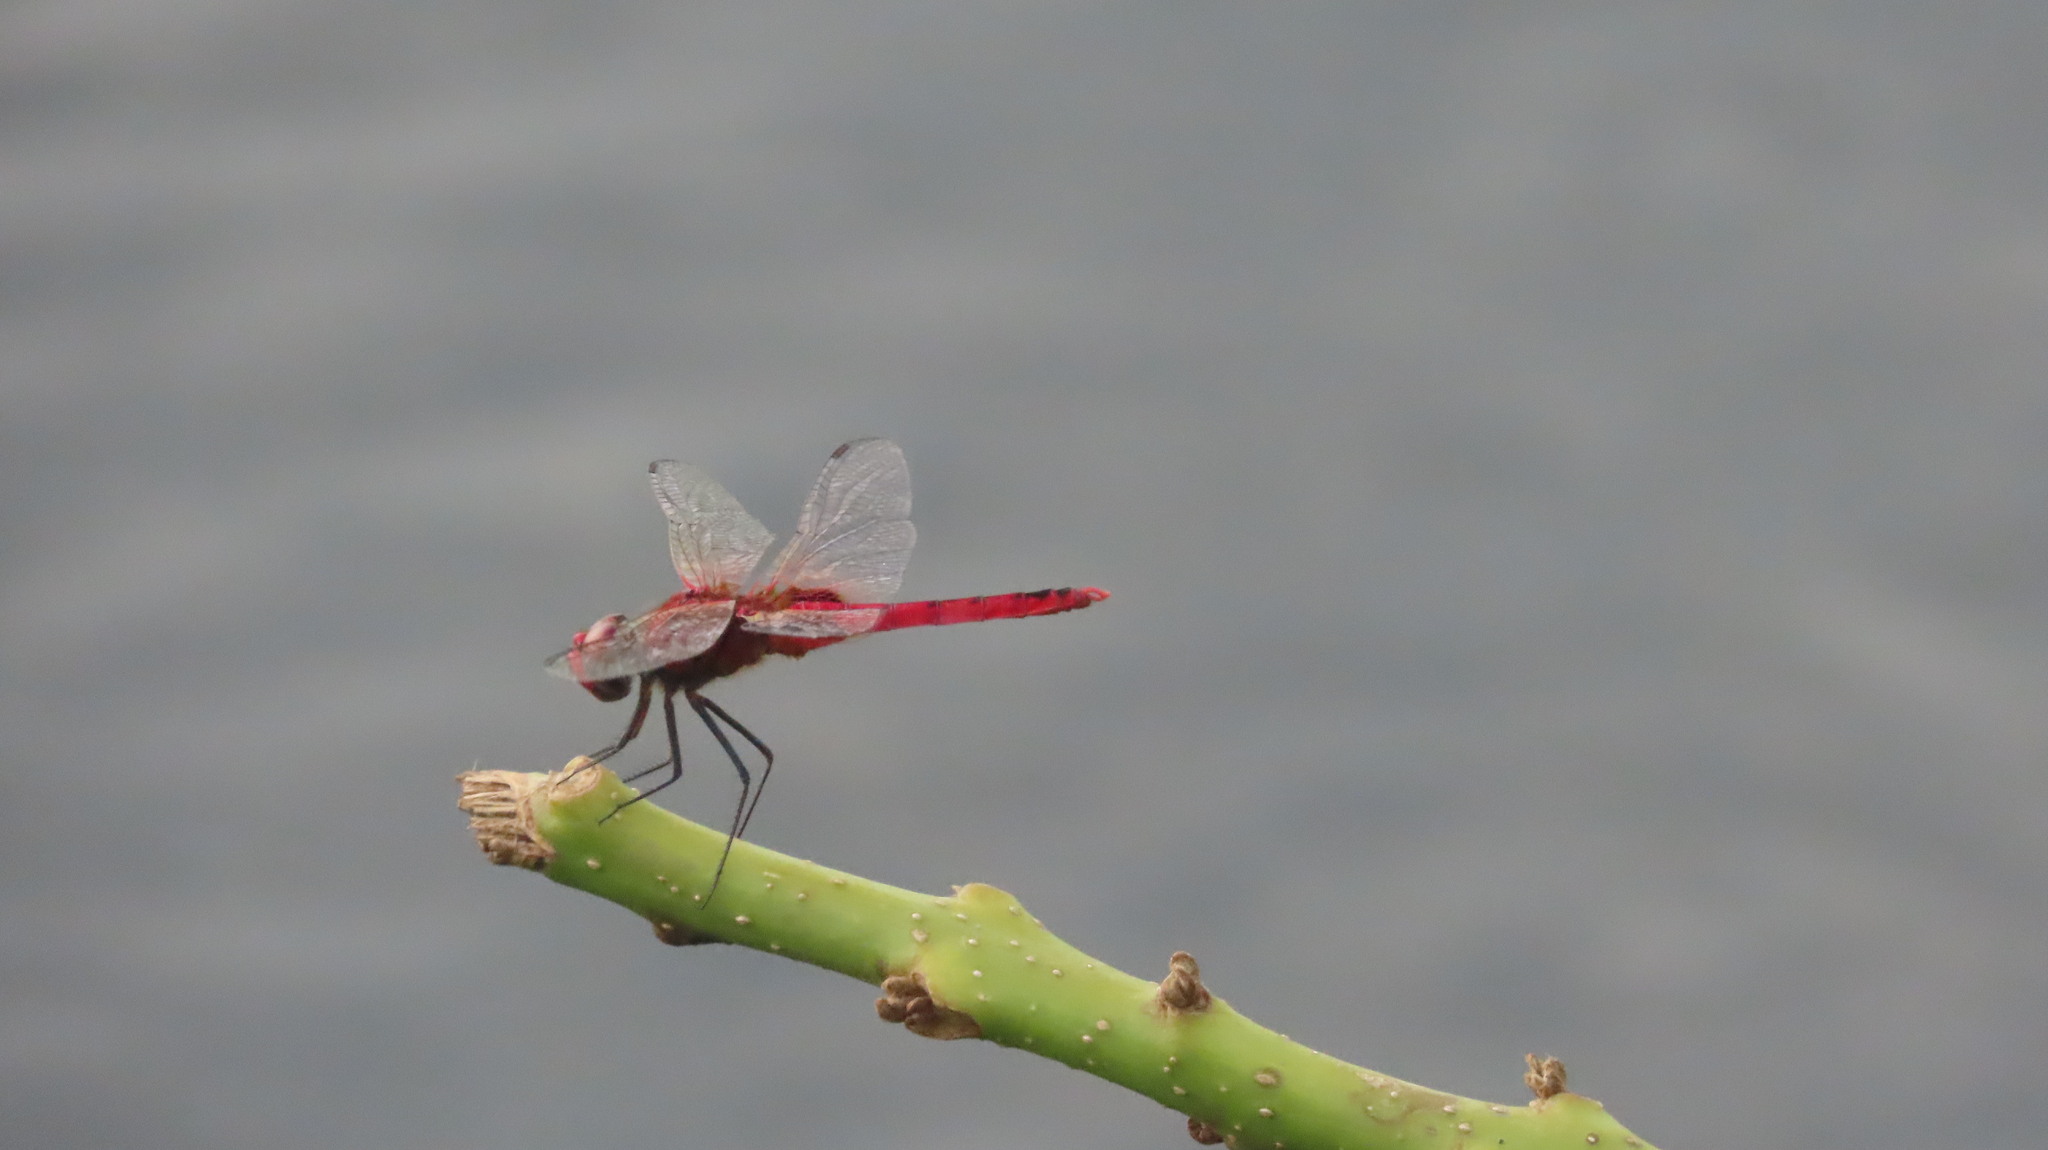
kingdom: Animalia
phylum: Arthropoda
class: Insecta
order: Odonata
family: Libellulidae
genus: Urothemis
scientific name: Urothemis signata
